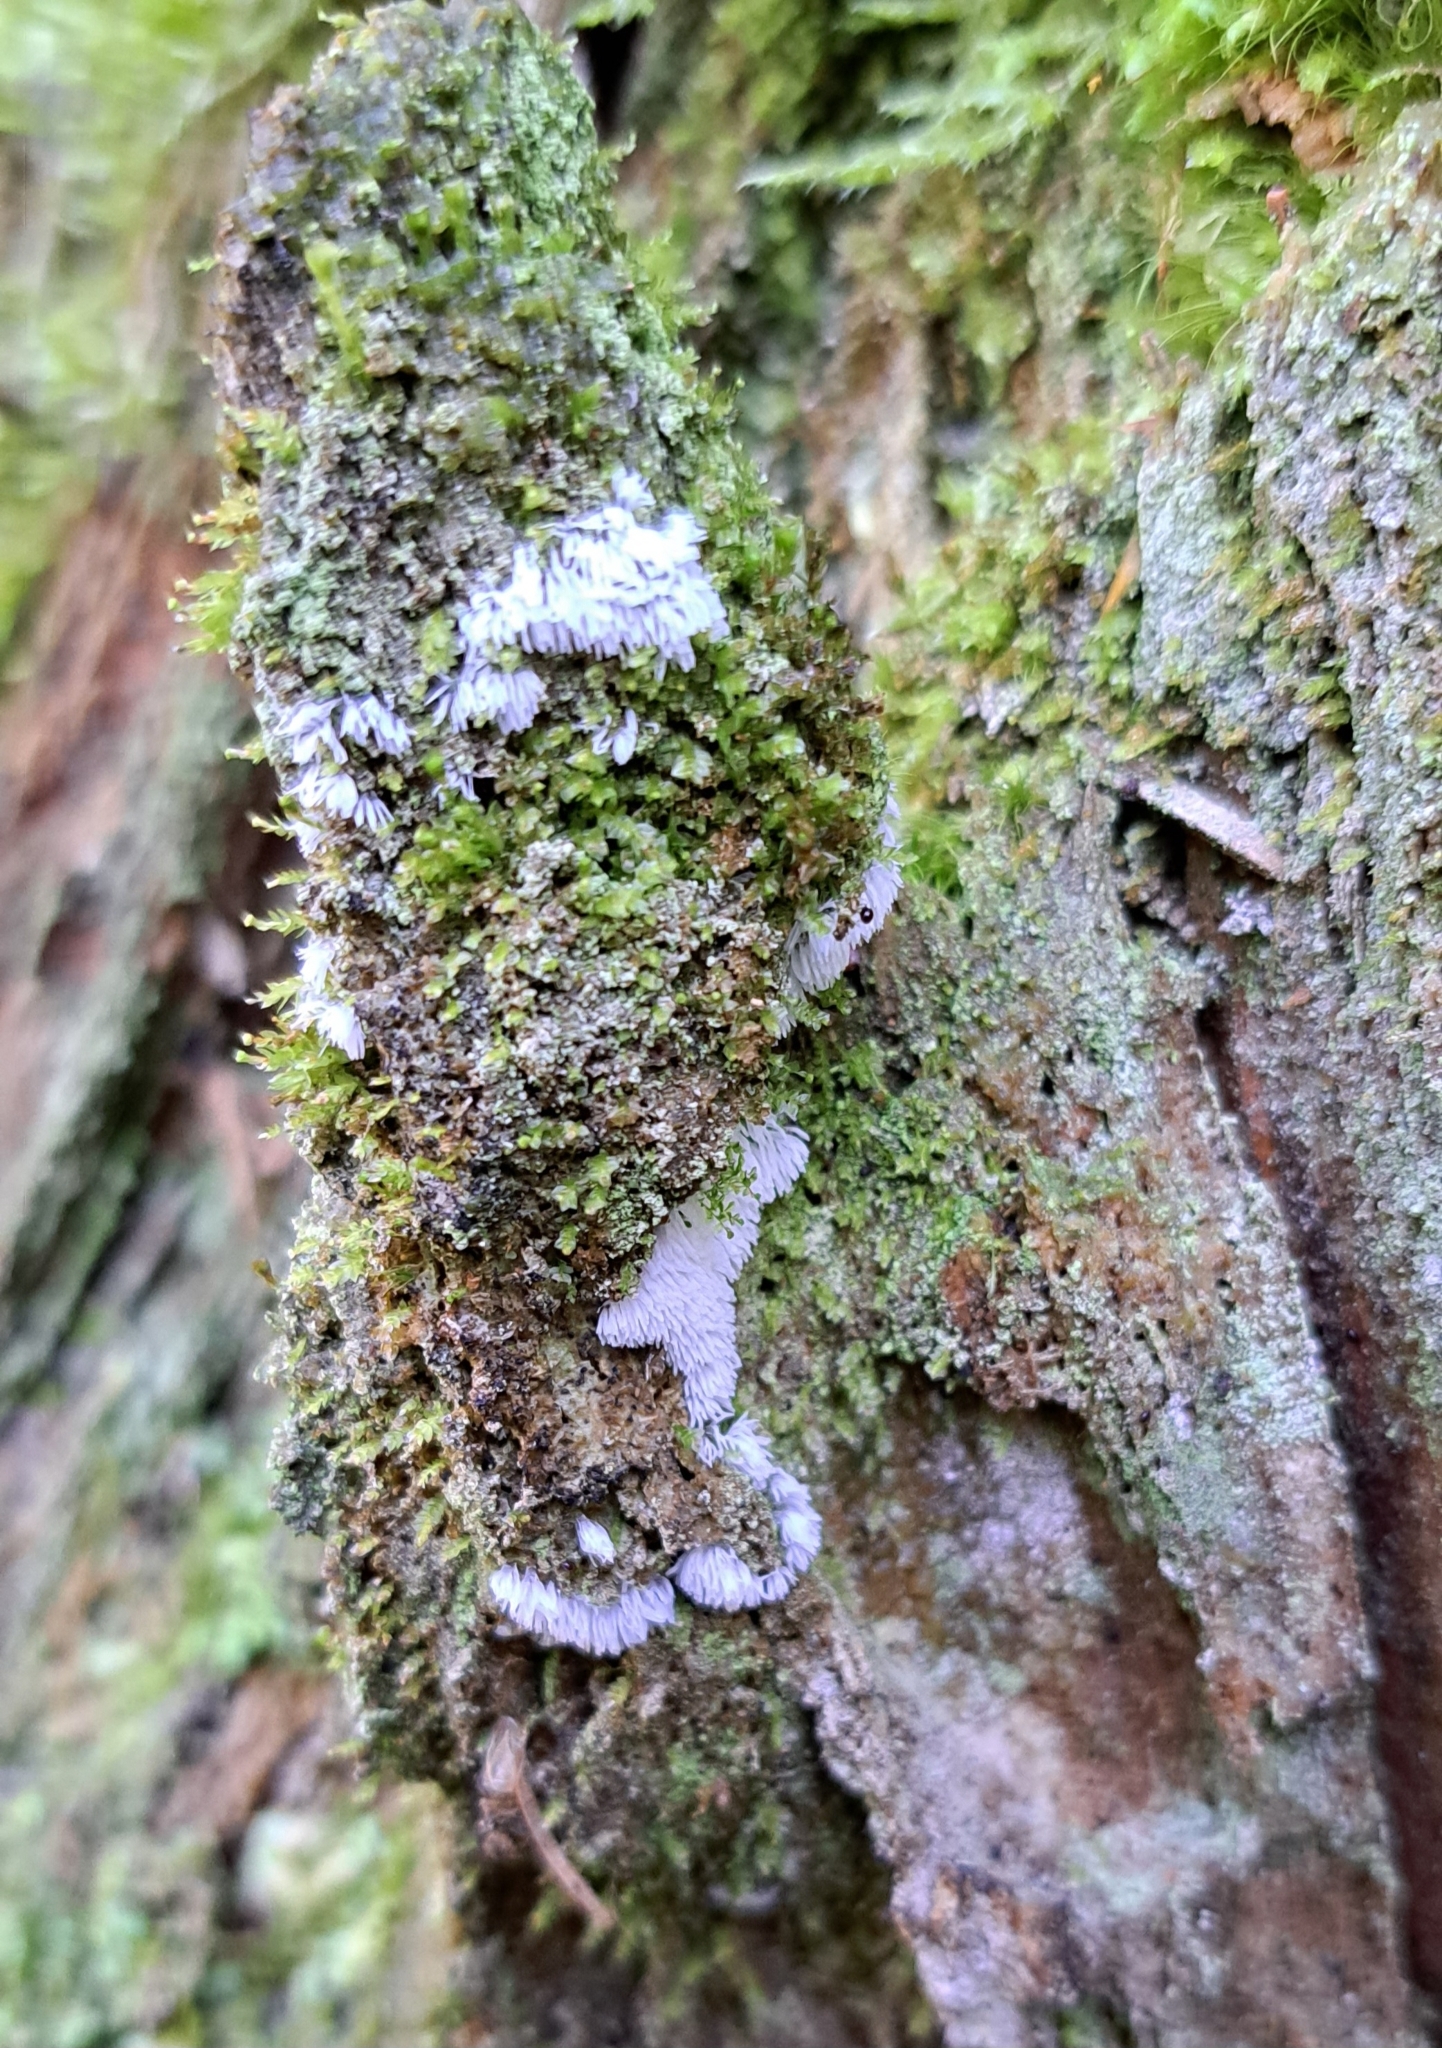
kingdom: Protozoa
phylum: Mycetozoa
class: Protosteliomycetes
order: Ceratiomyxales
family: Ceratiomyxaceae
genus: Ceratiomyxa
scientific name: Ceratiomyxa fruticulosa
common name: Honeycomb coral slime mold
